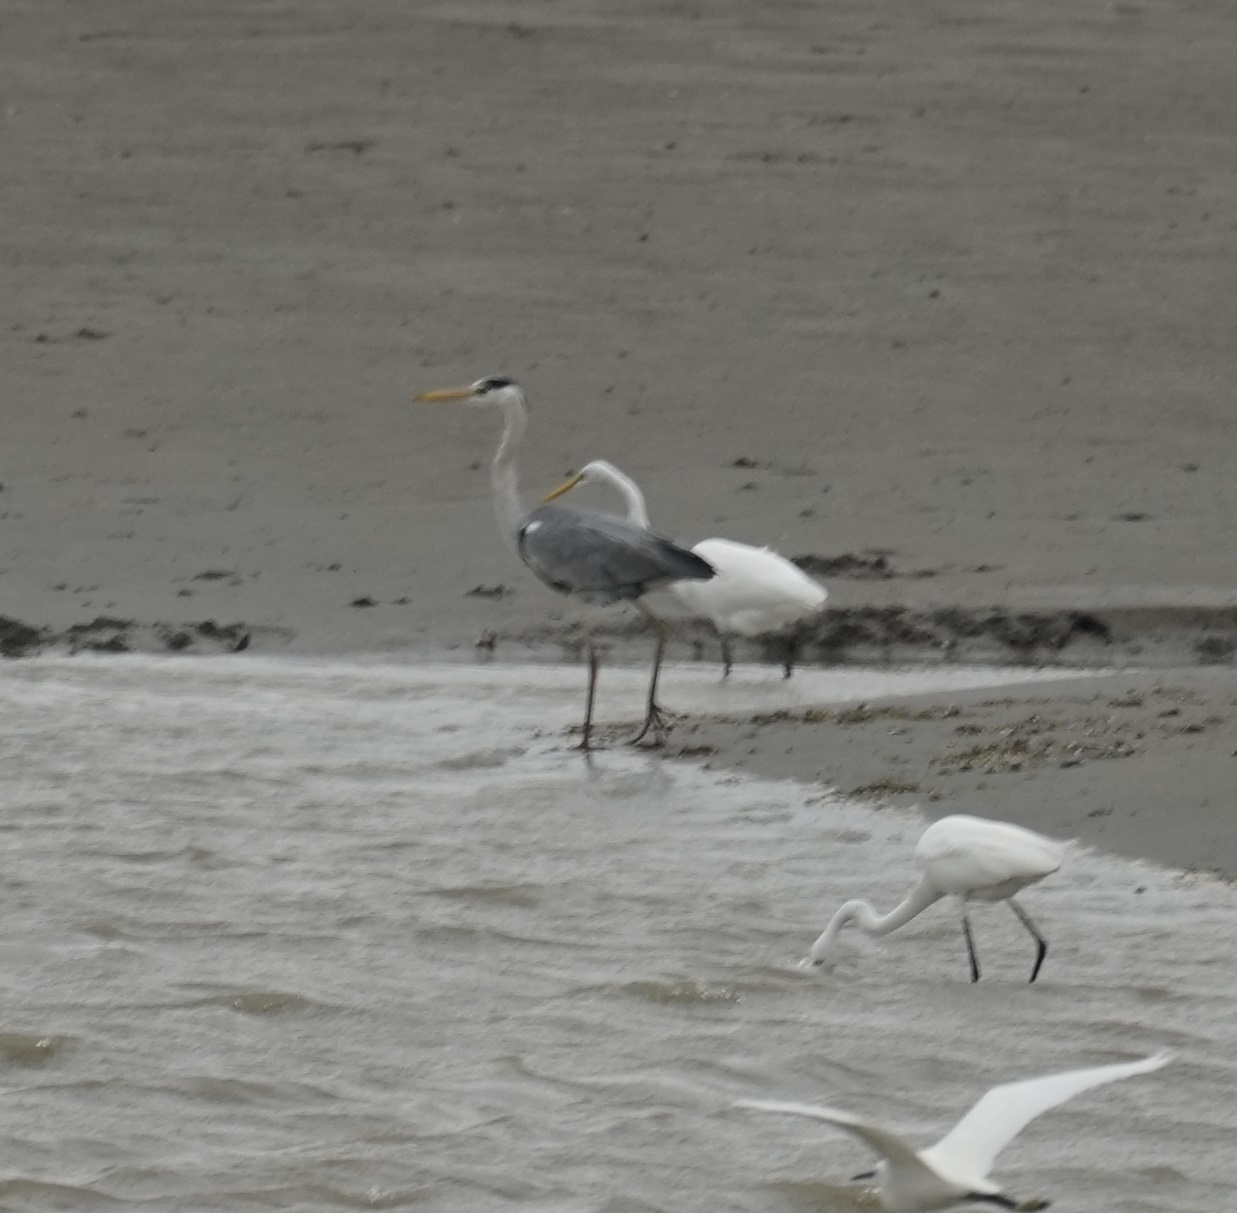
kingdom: Animalia
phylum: Chordata
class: Aves
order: Pelecaniformes
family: Ardeidae
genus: Ardea
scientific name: Ardea cinerea
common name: Grey heron
